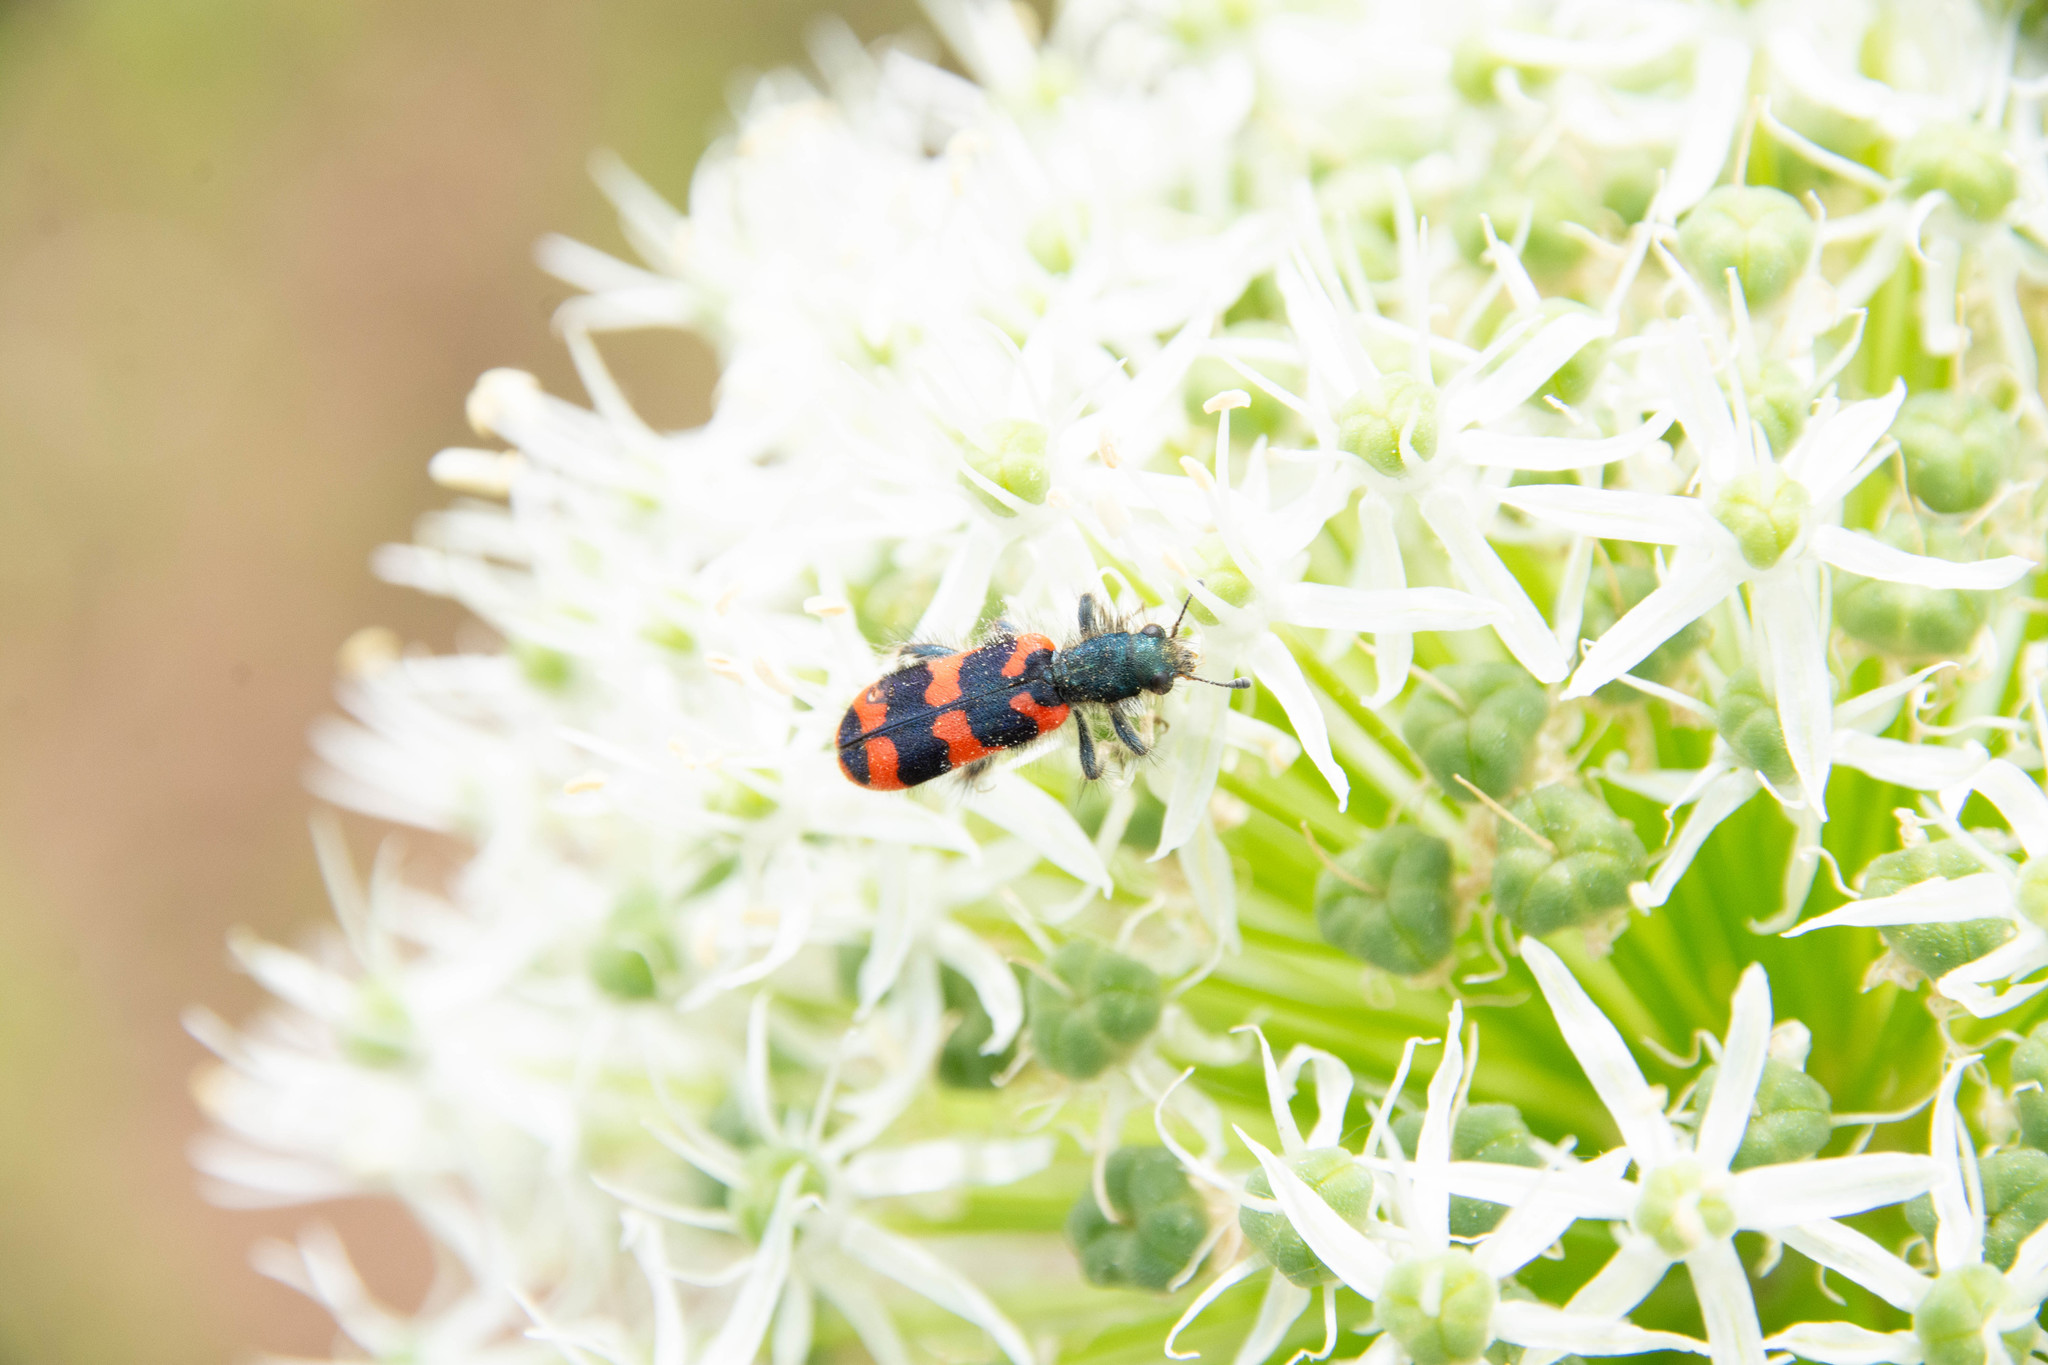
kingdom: Animalia
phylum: Arthropoda
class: Insecta
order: Coleoptera
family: Cleridae
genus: Trichodes
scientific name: Trichodes alvearius
